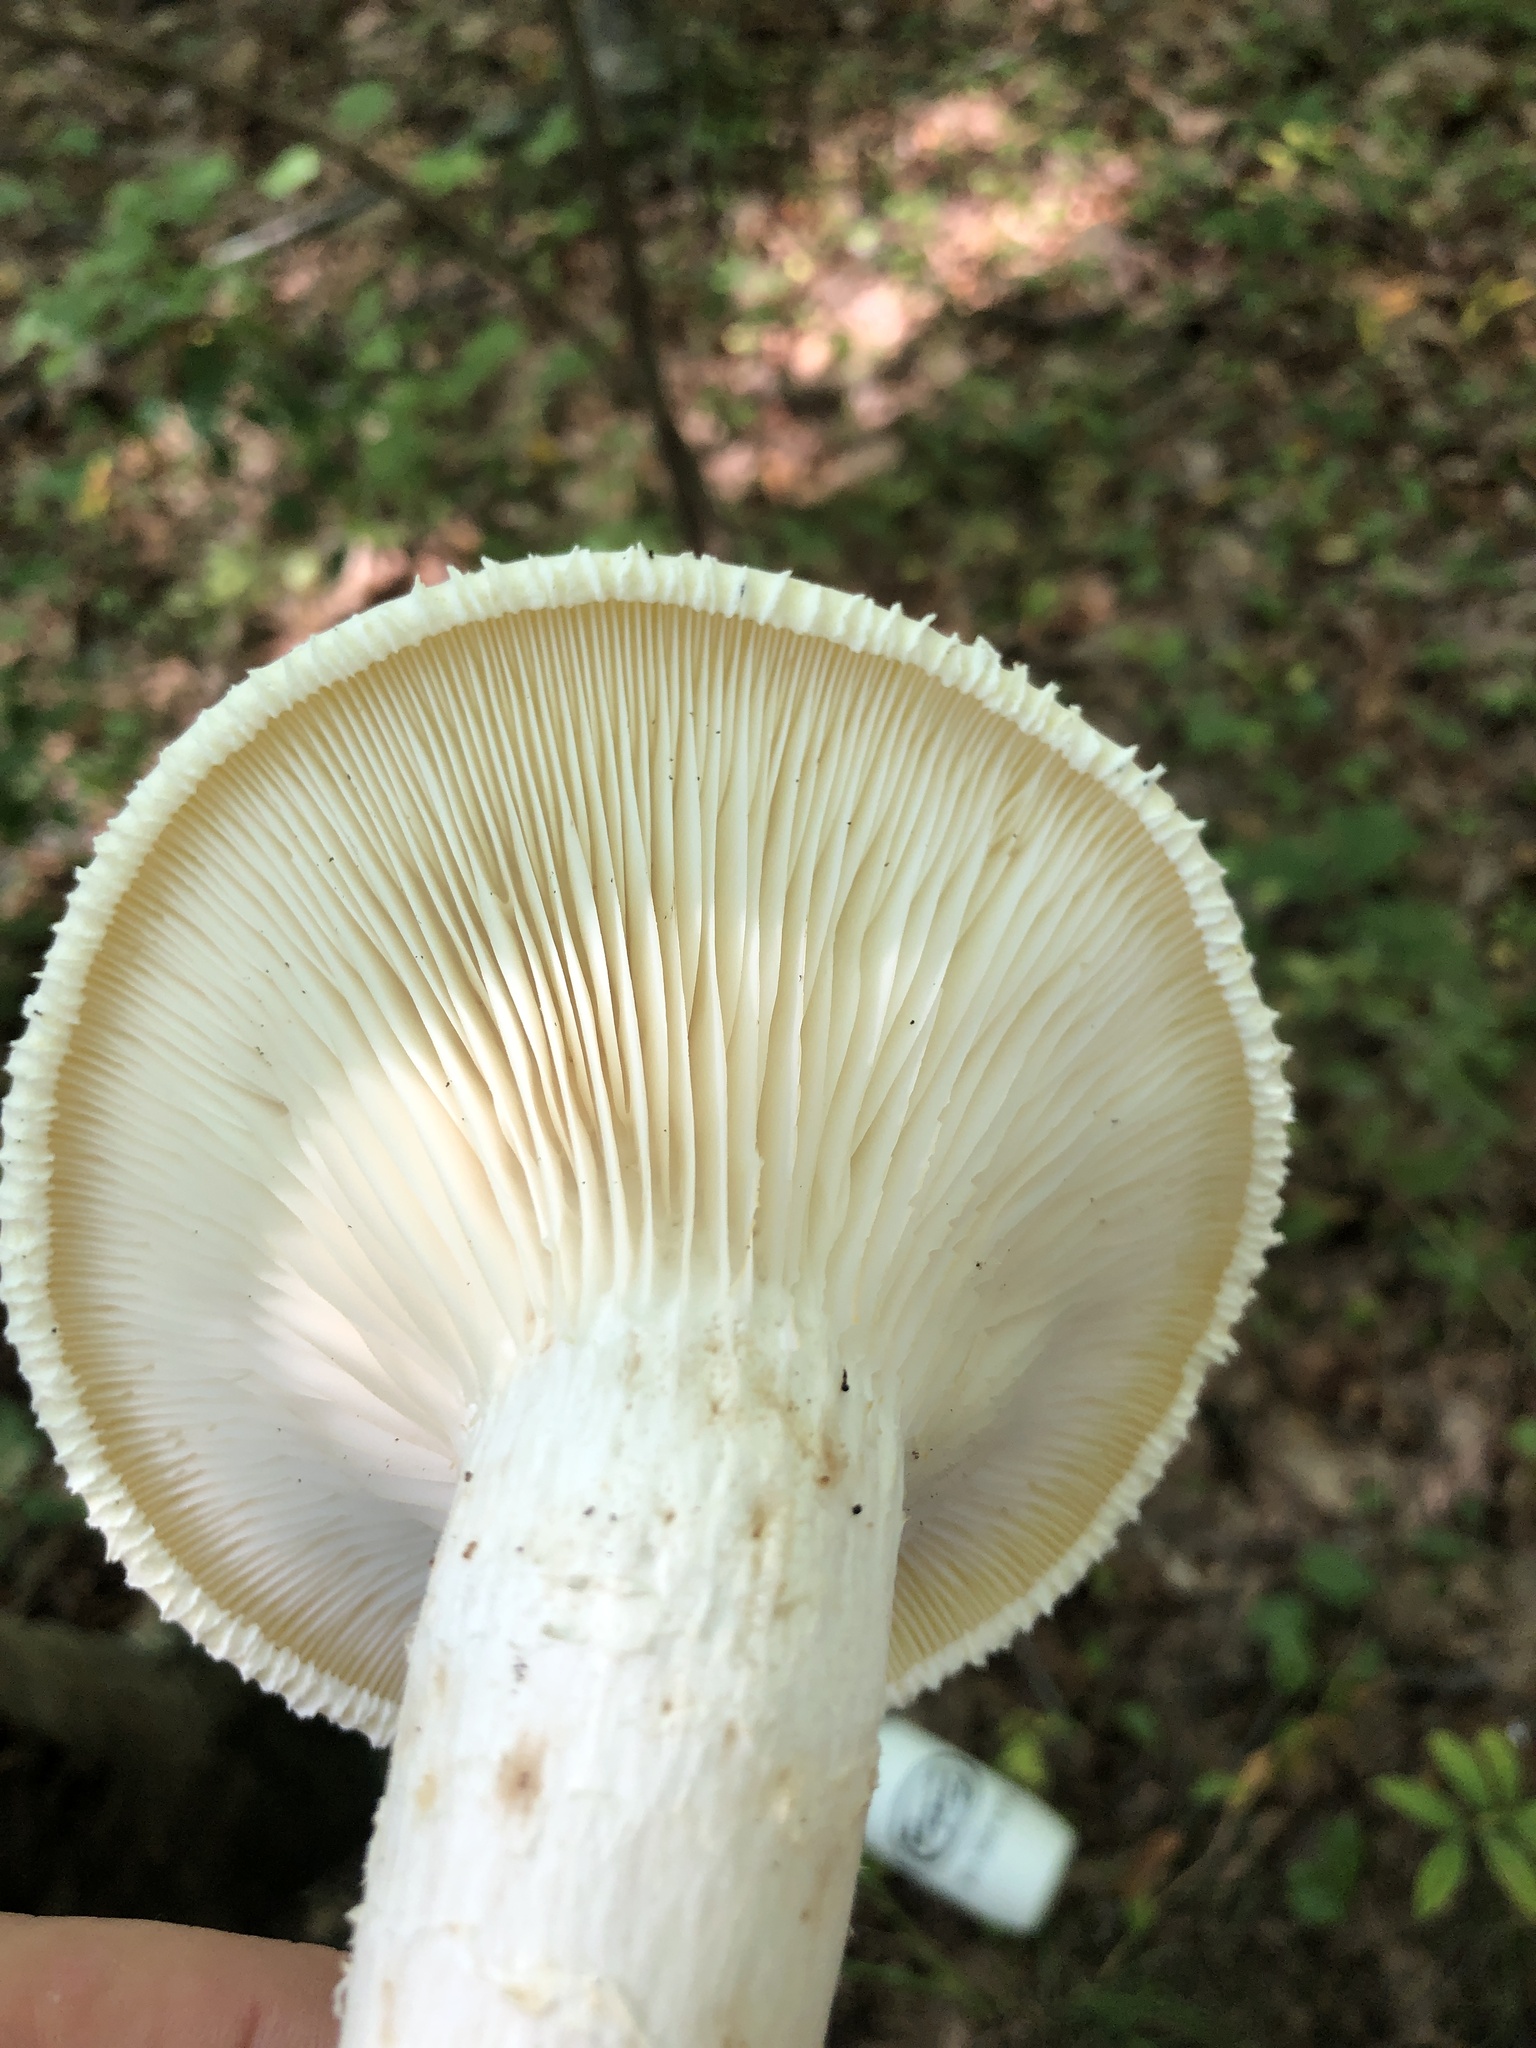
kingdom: Fungi
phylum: Basidiomycota
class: Agaricomycetes
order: Polyporales
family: Polyporaceae
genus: Lentinus
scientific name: Lentinus levis
